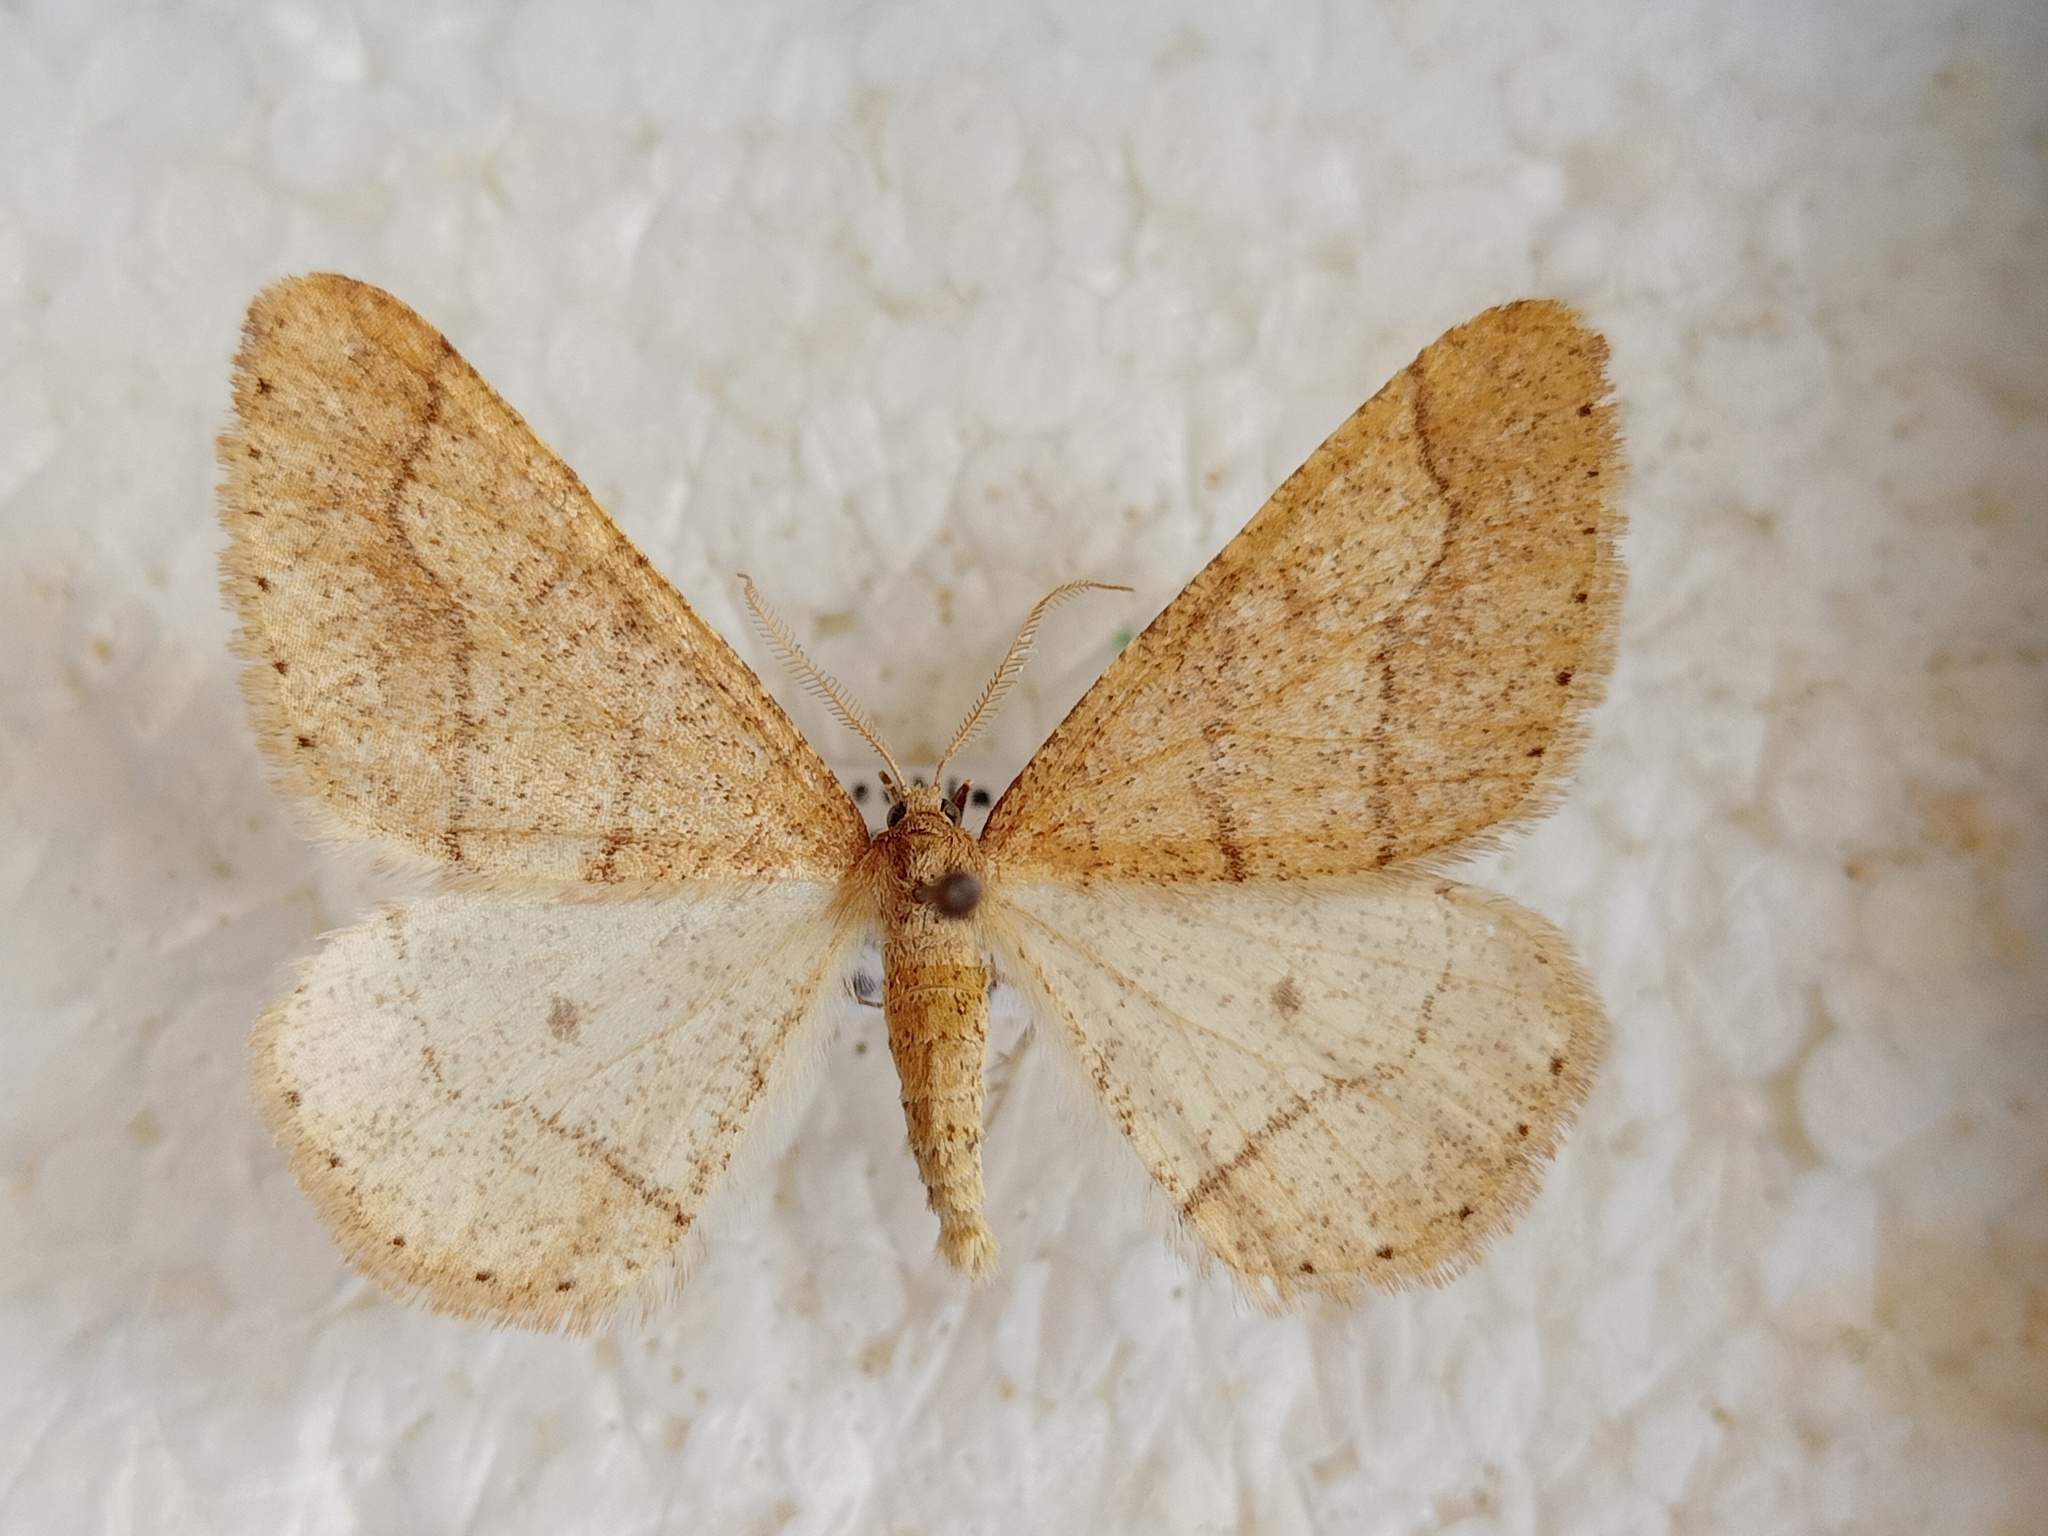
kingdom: Animalia
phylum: Arthropoda
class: Insecta
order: Lepidoptera
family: Geometridae
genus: Agriopis
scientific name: Agriopis marginaria
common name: Dotted border
